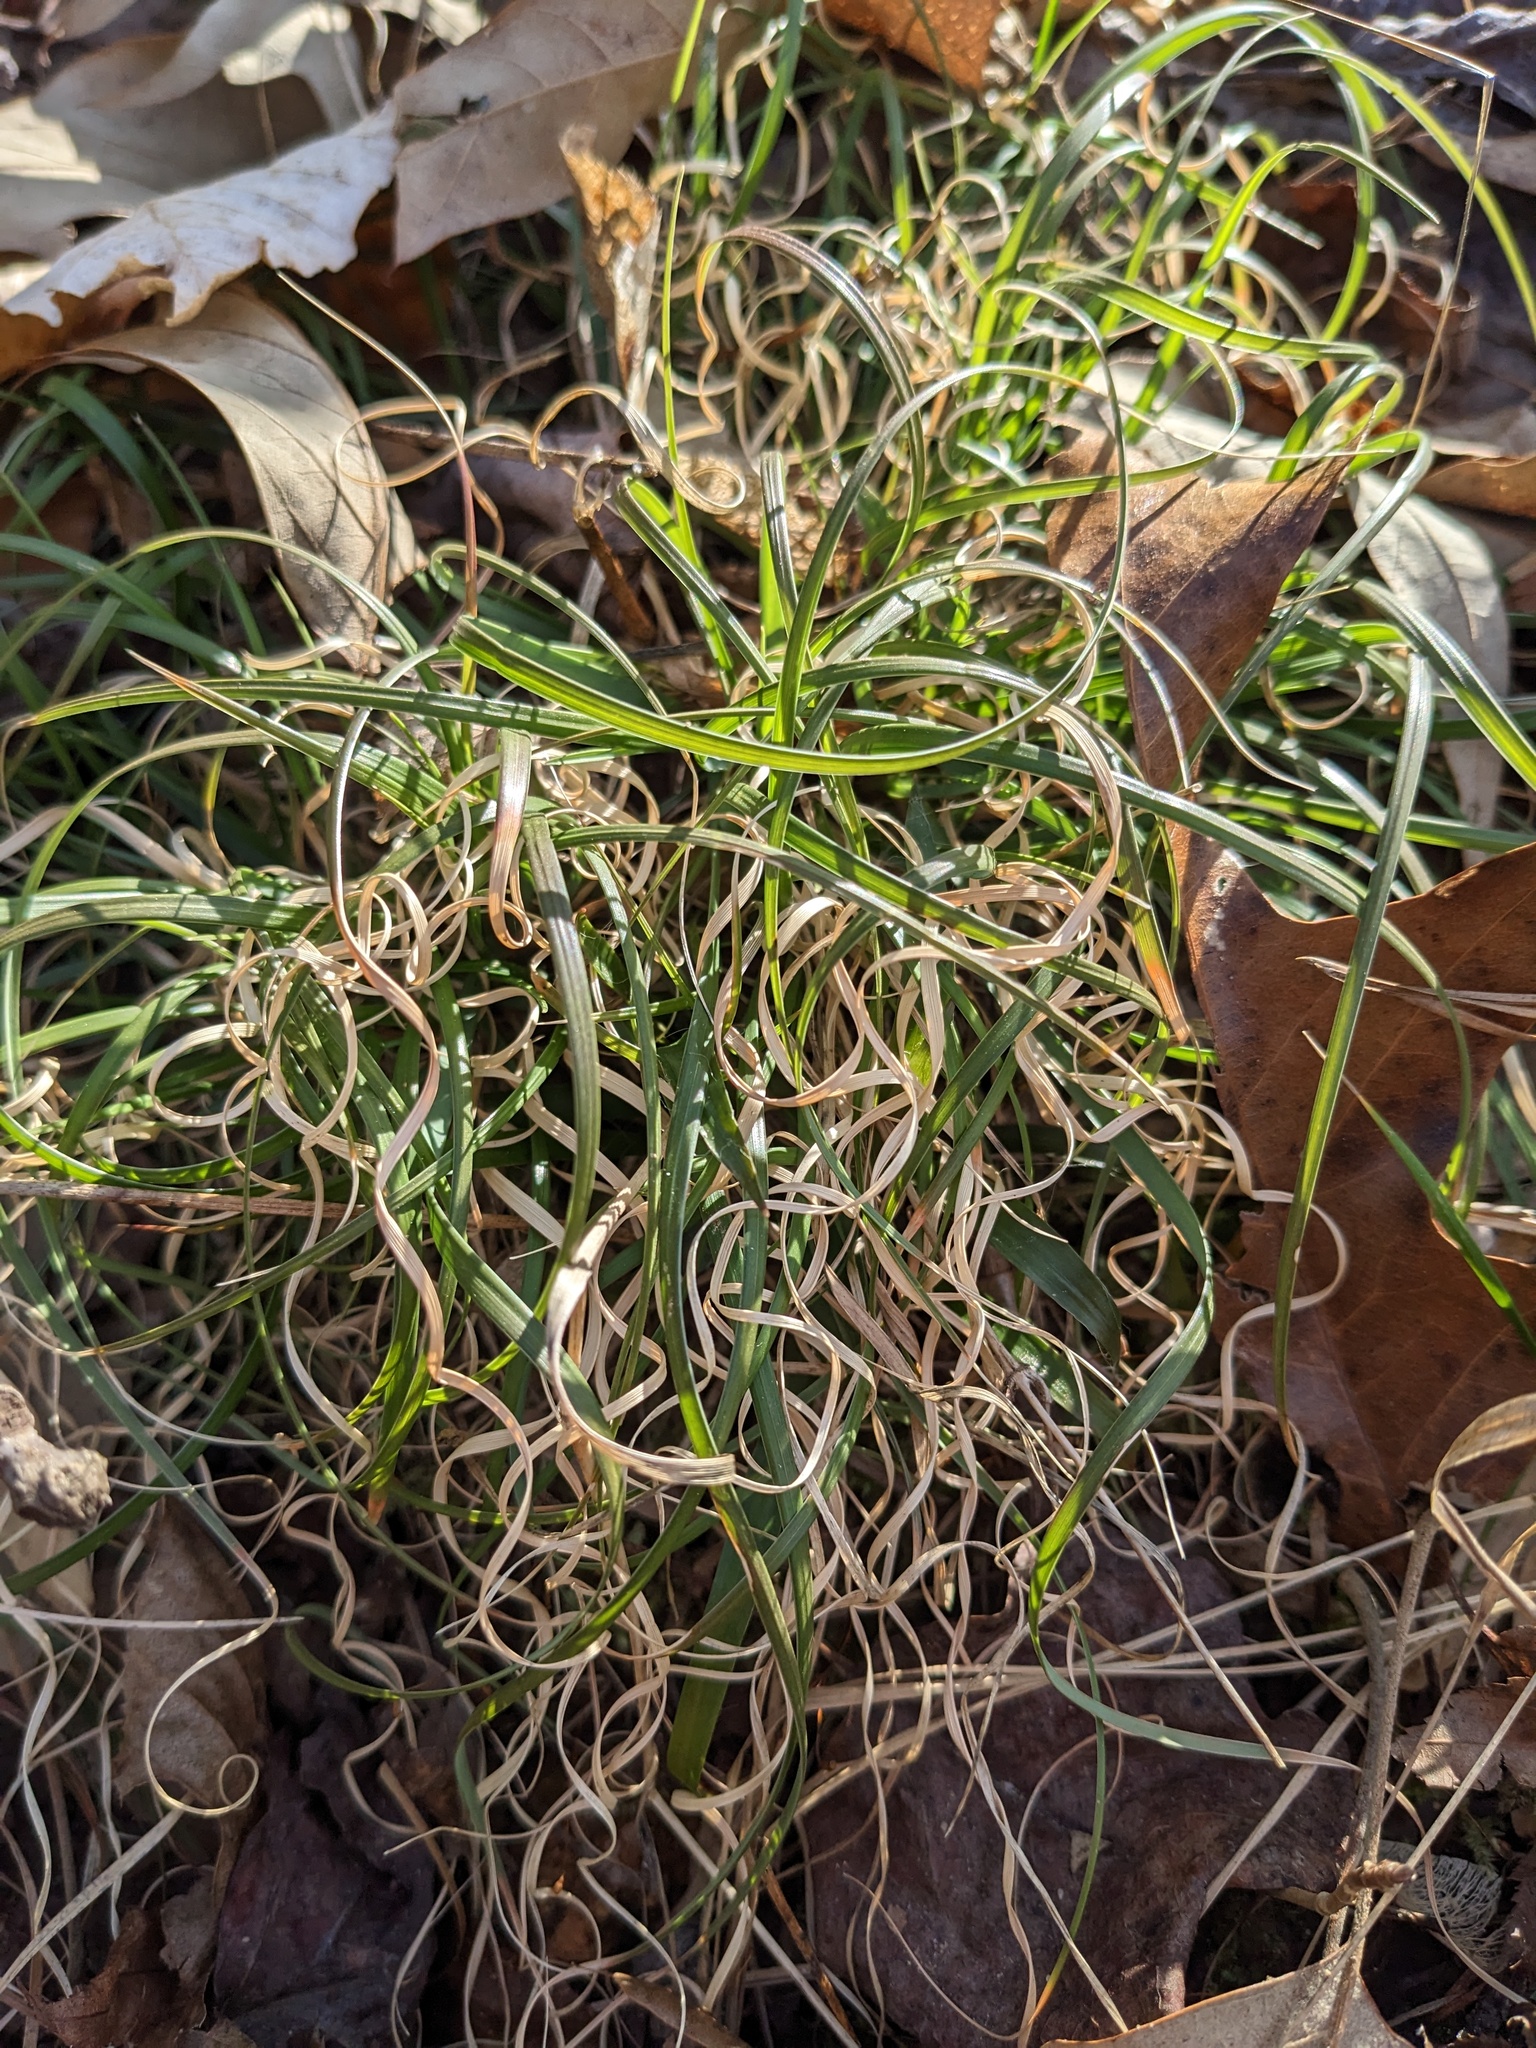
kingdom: Plantae
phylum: Tracheophyta
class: Liliopsida
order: Poales
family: Poaceae
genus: Danthonia
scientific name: Danthonia spicata
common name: Common wild oatgrass
